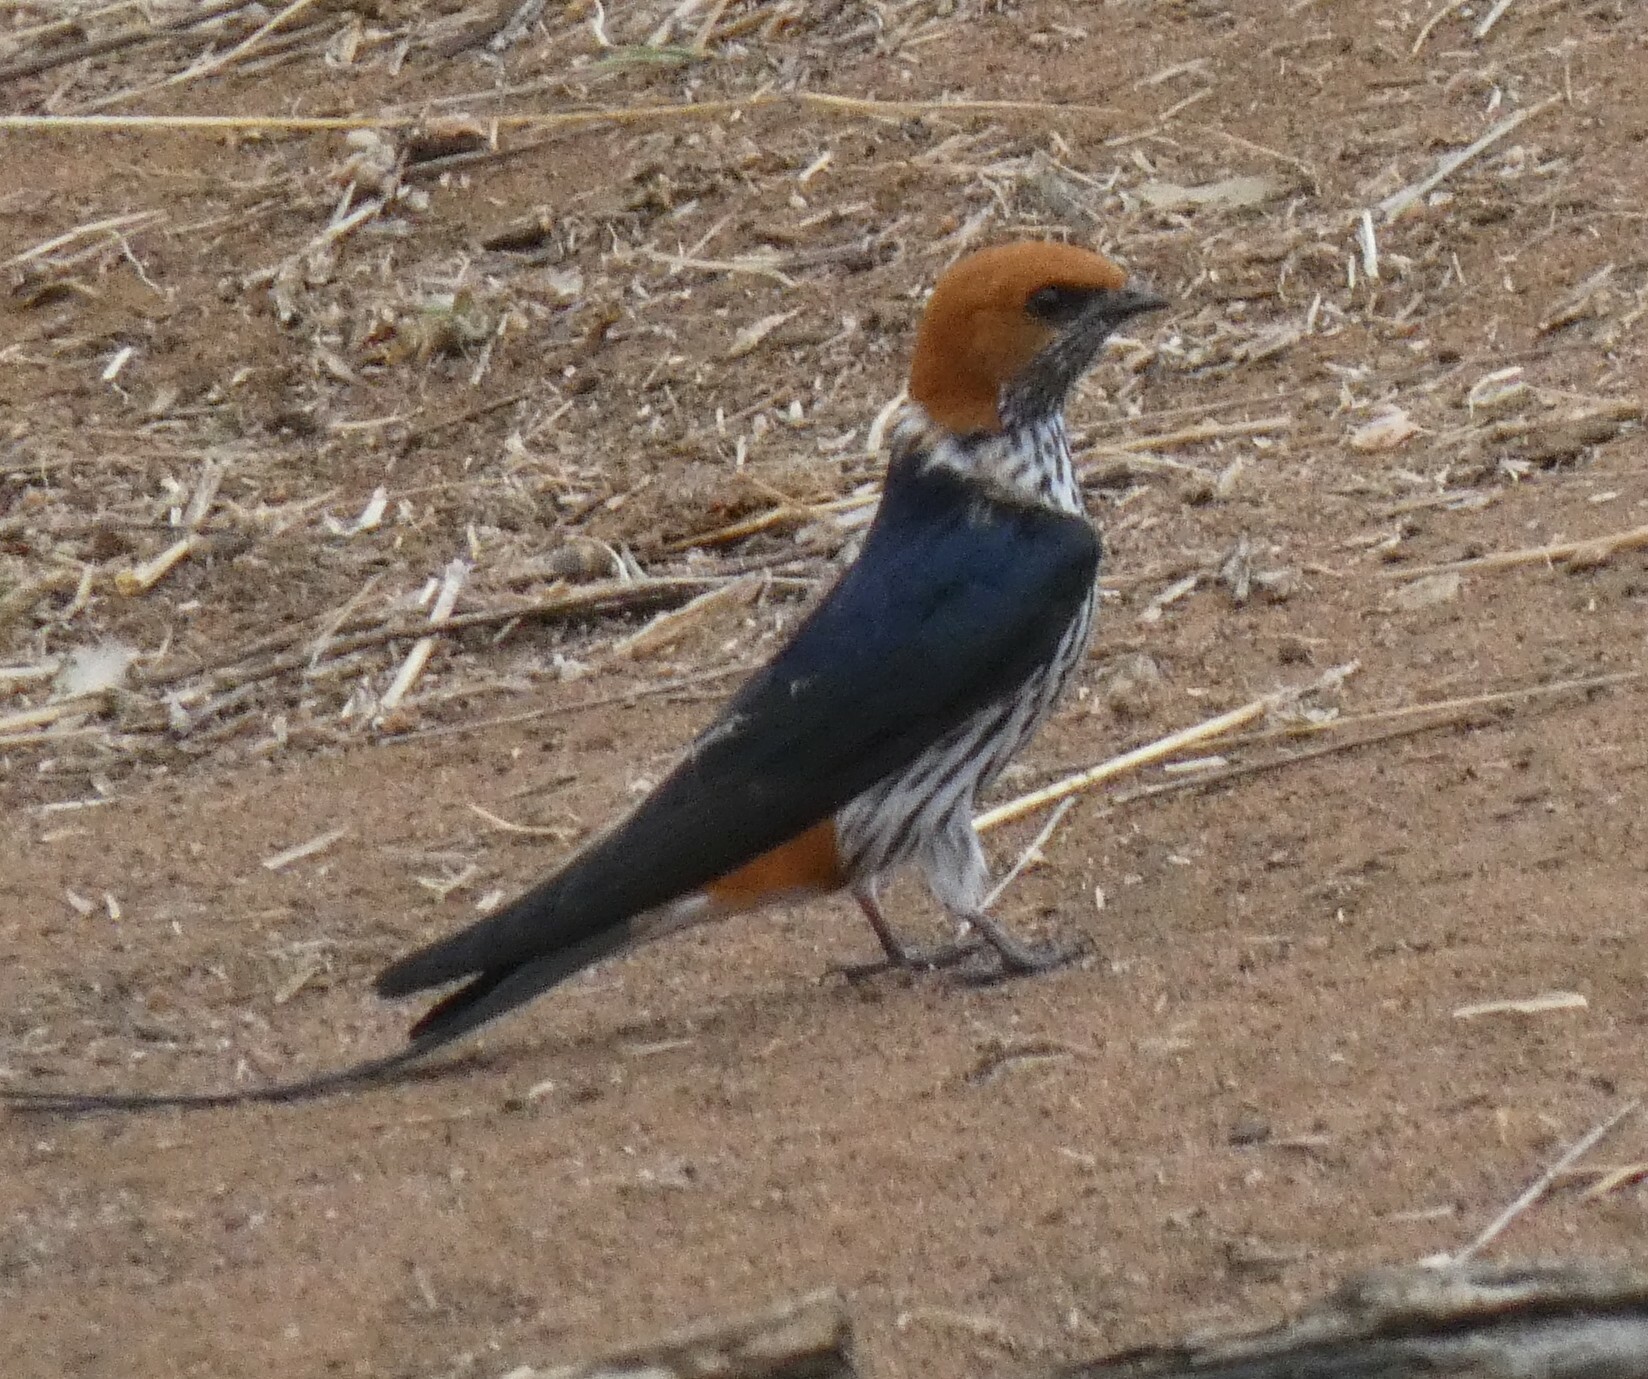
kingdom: Animalia
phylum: Chordata
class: Aves
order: Passeriformes
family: Hirundinidae
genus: Cecropis
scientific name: Cecropis abyssinica
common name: Lesser striped-swallow
